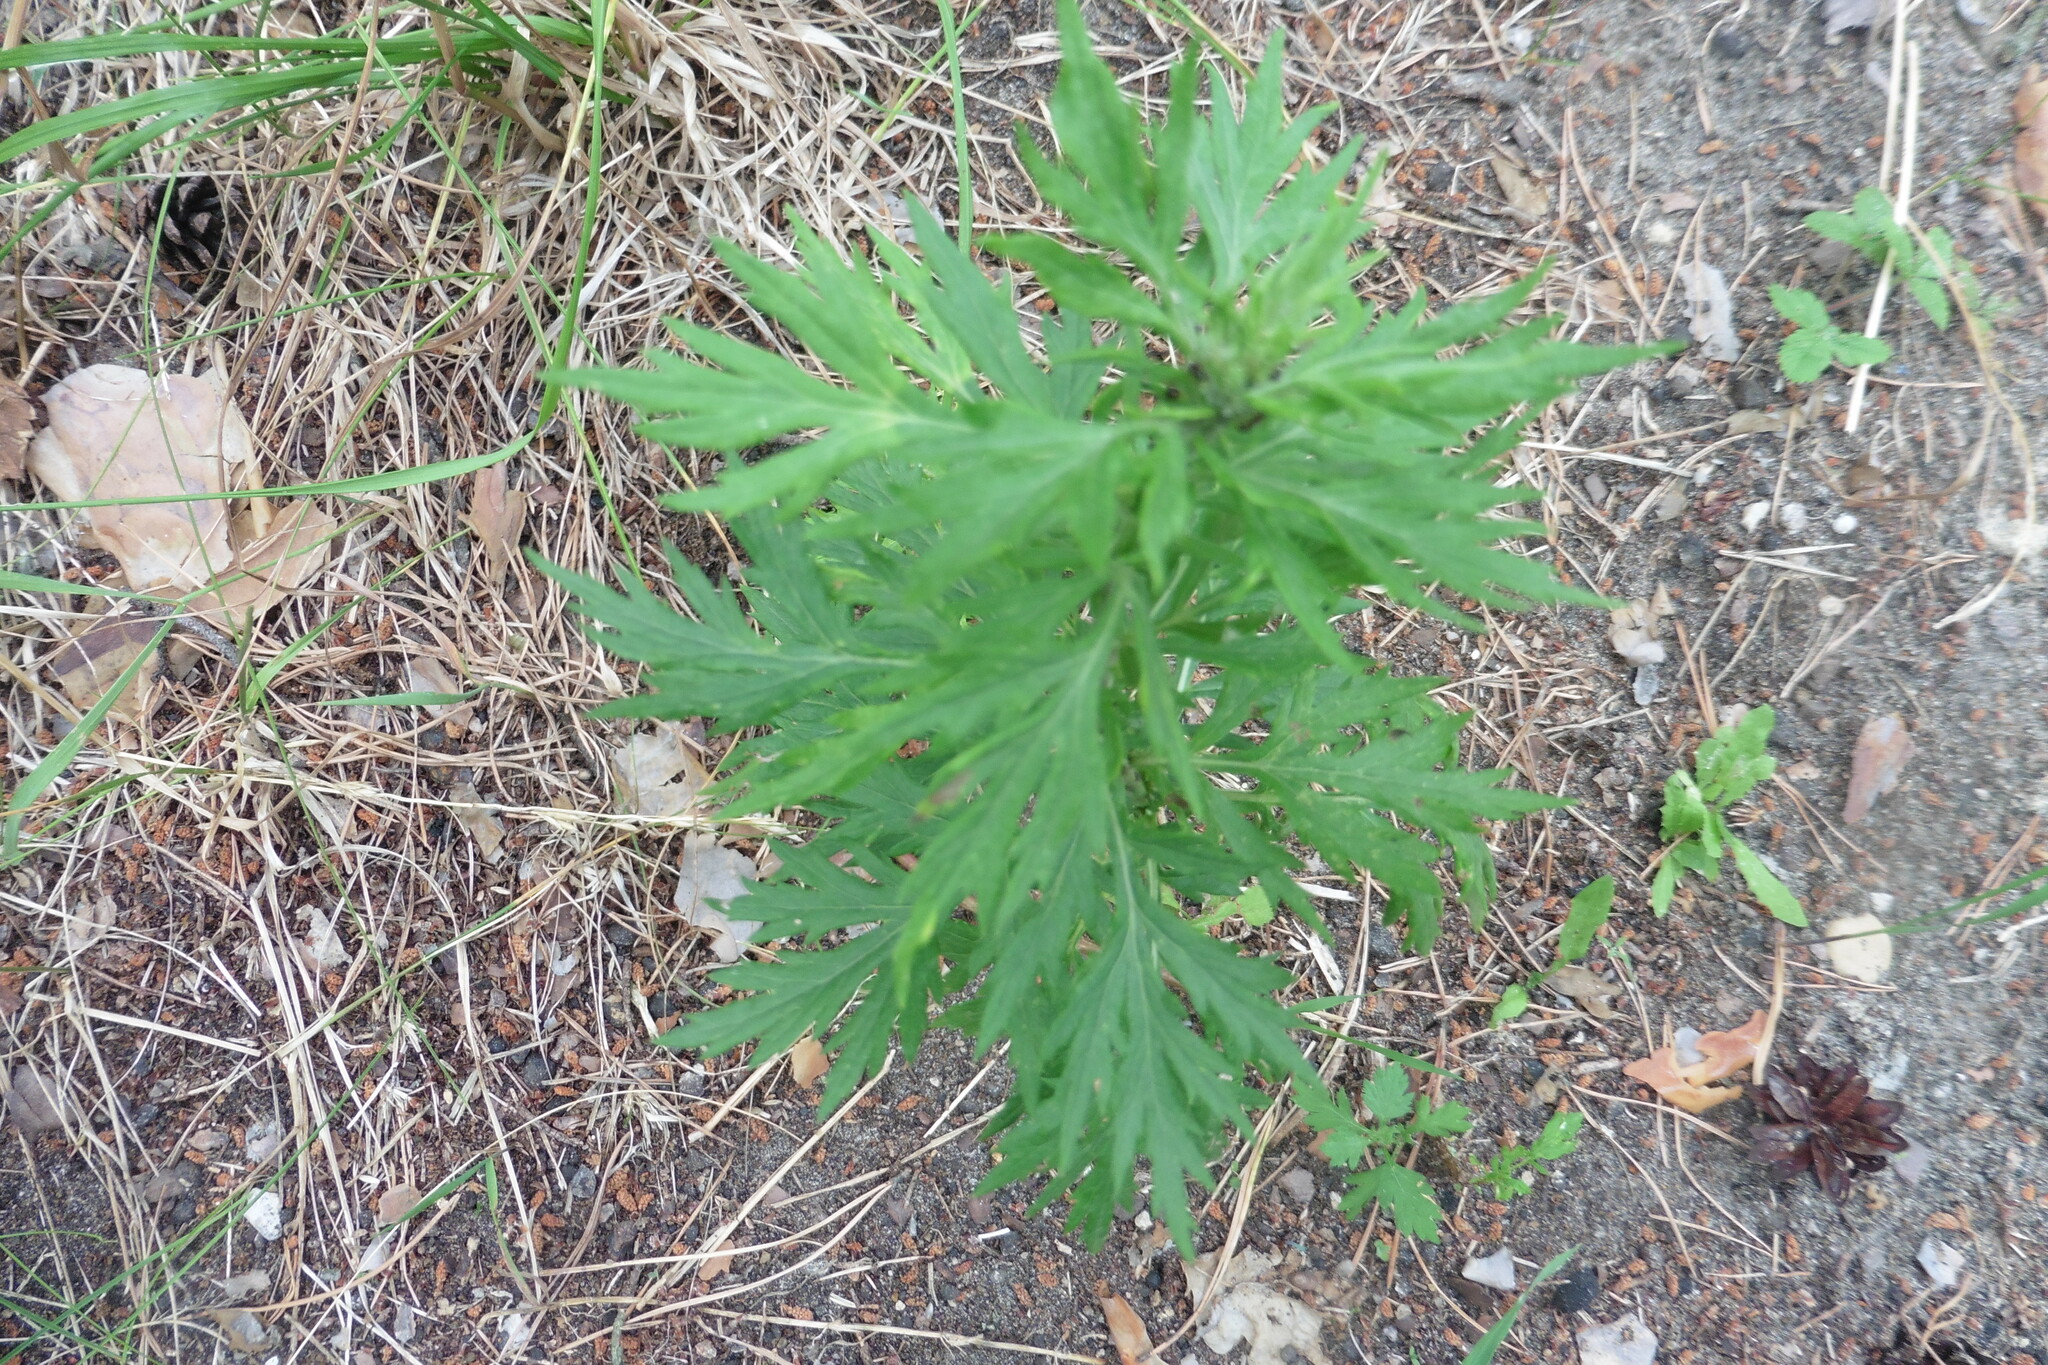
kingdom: Plantae
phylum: Tracheophyta
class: Magnoliopsida
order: Asterales
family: Asteraceae
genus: Artemisia
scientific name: Artemisia vulgaris
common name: Mugwort
